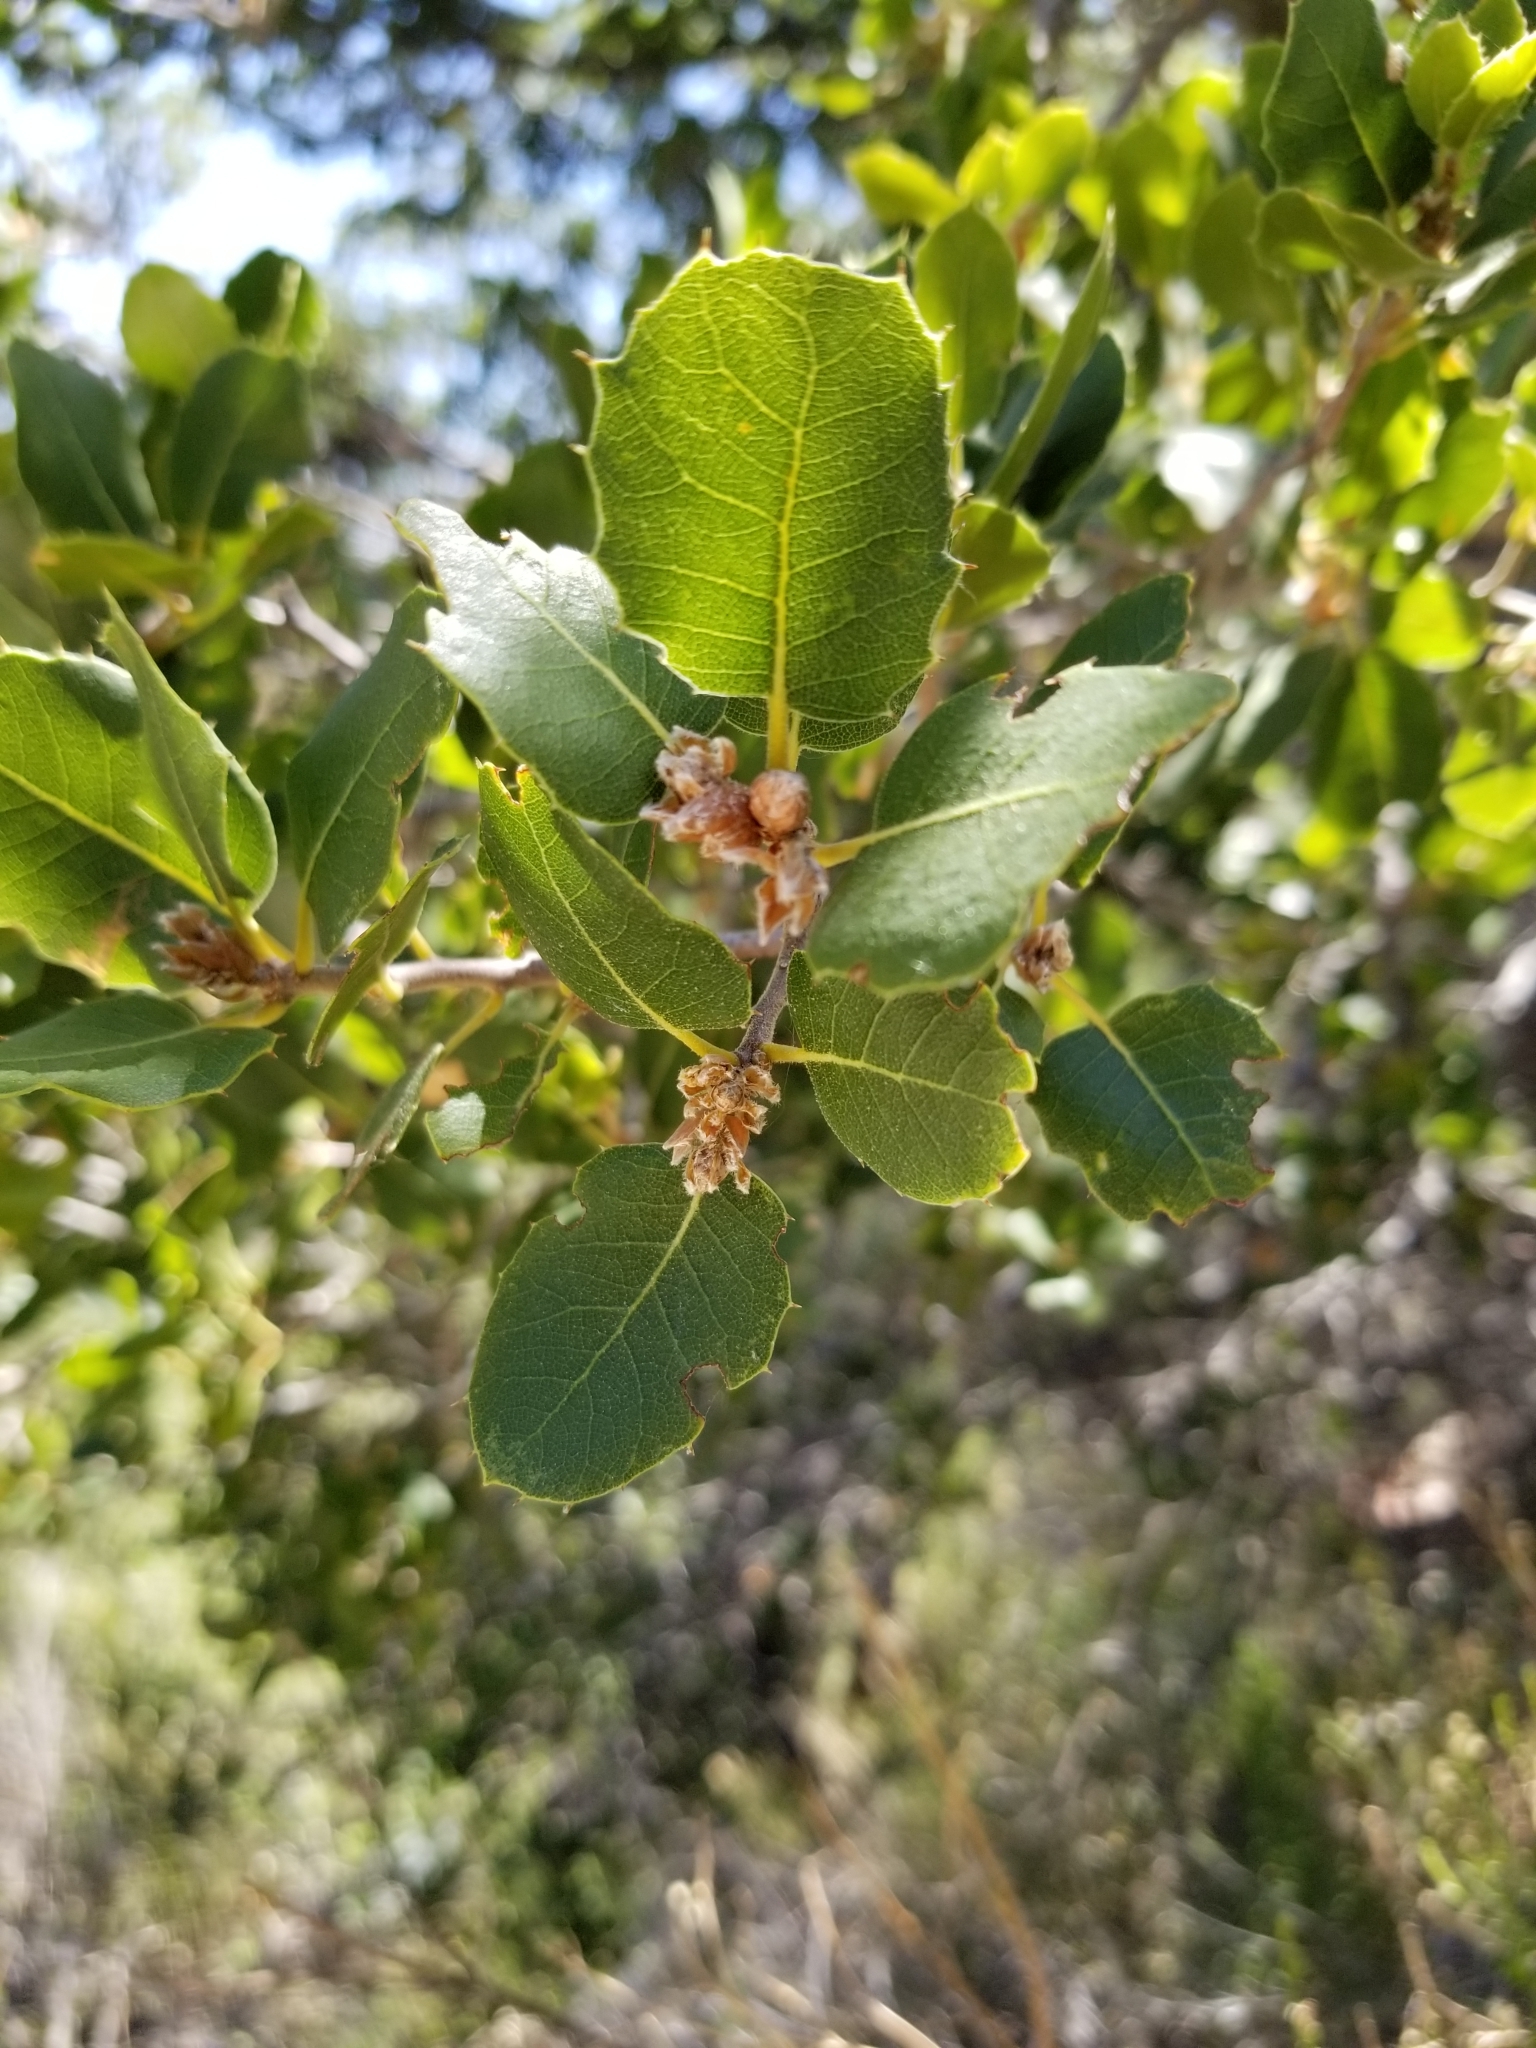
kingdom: Plantae
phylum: Tracheophyta
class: Magnoliopsida
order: Fagales
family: Fagaceae
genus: Quercus
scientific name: Quercus wislizeni
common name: Interior live oak
